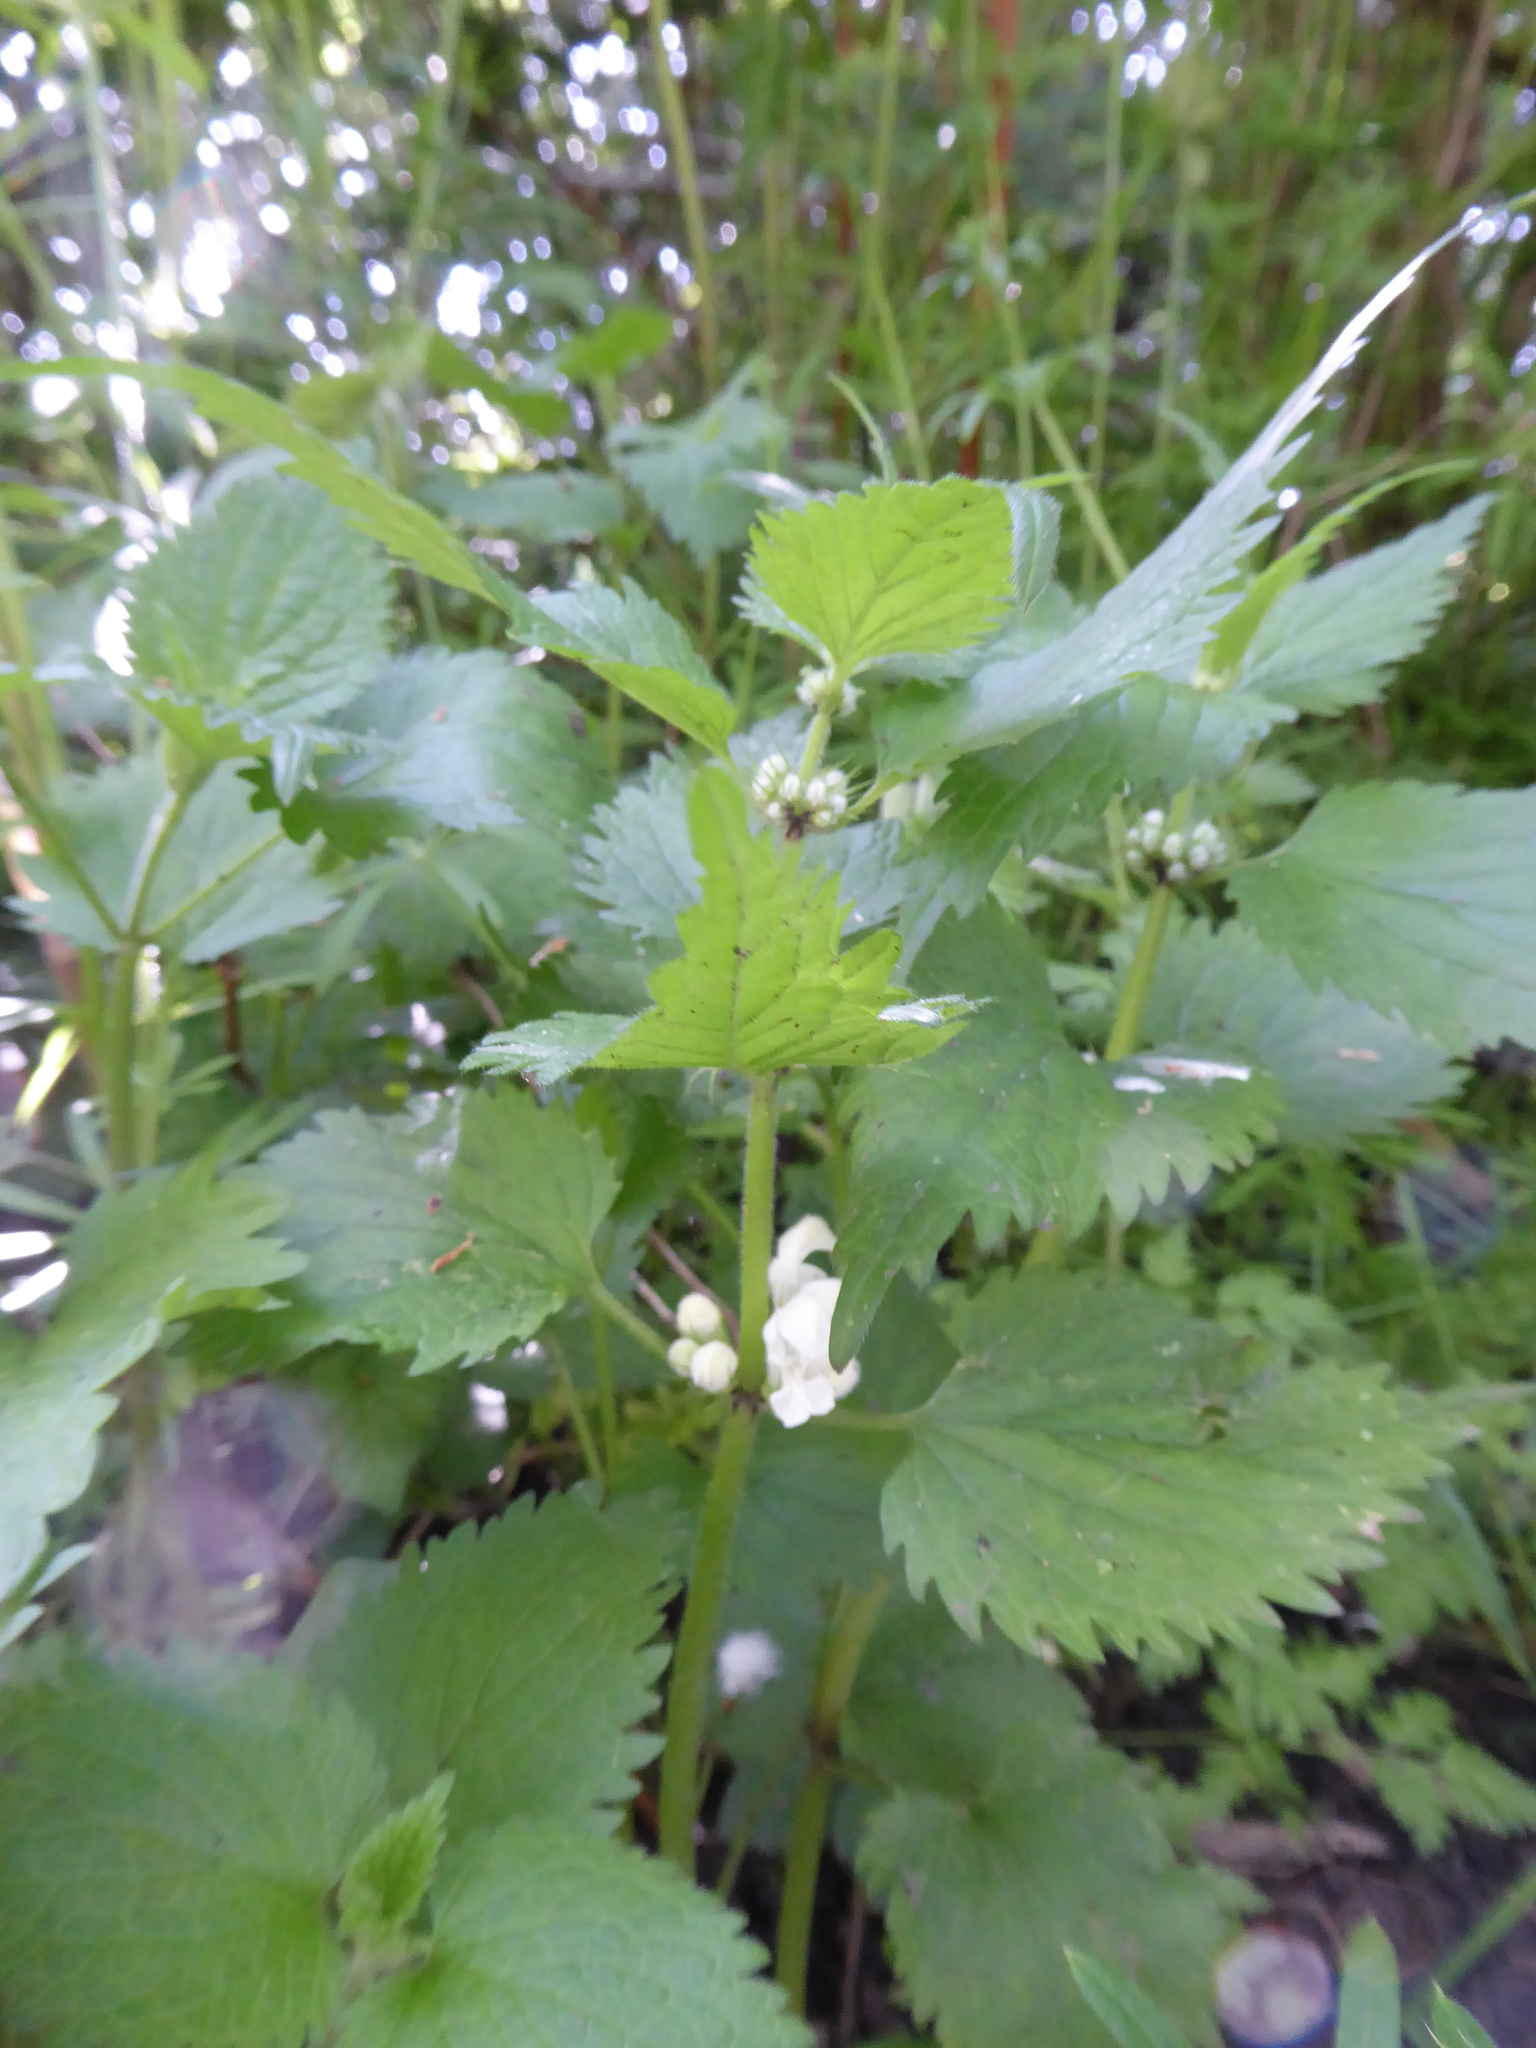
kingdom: Plantae
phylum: Tracheophyta
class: Magnoliopsida
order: Lamiales
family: Lamiaceae
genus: Lamium
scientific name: Lamium album
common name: White dead-nettle
